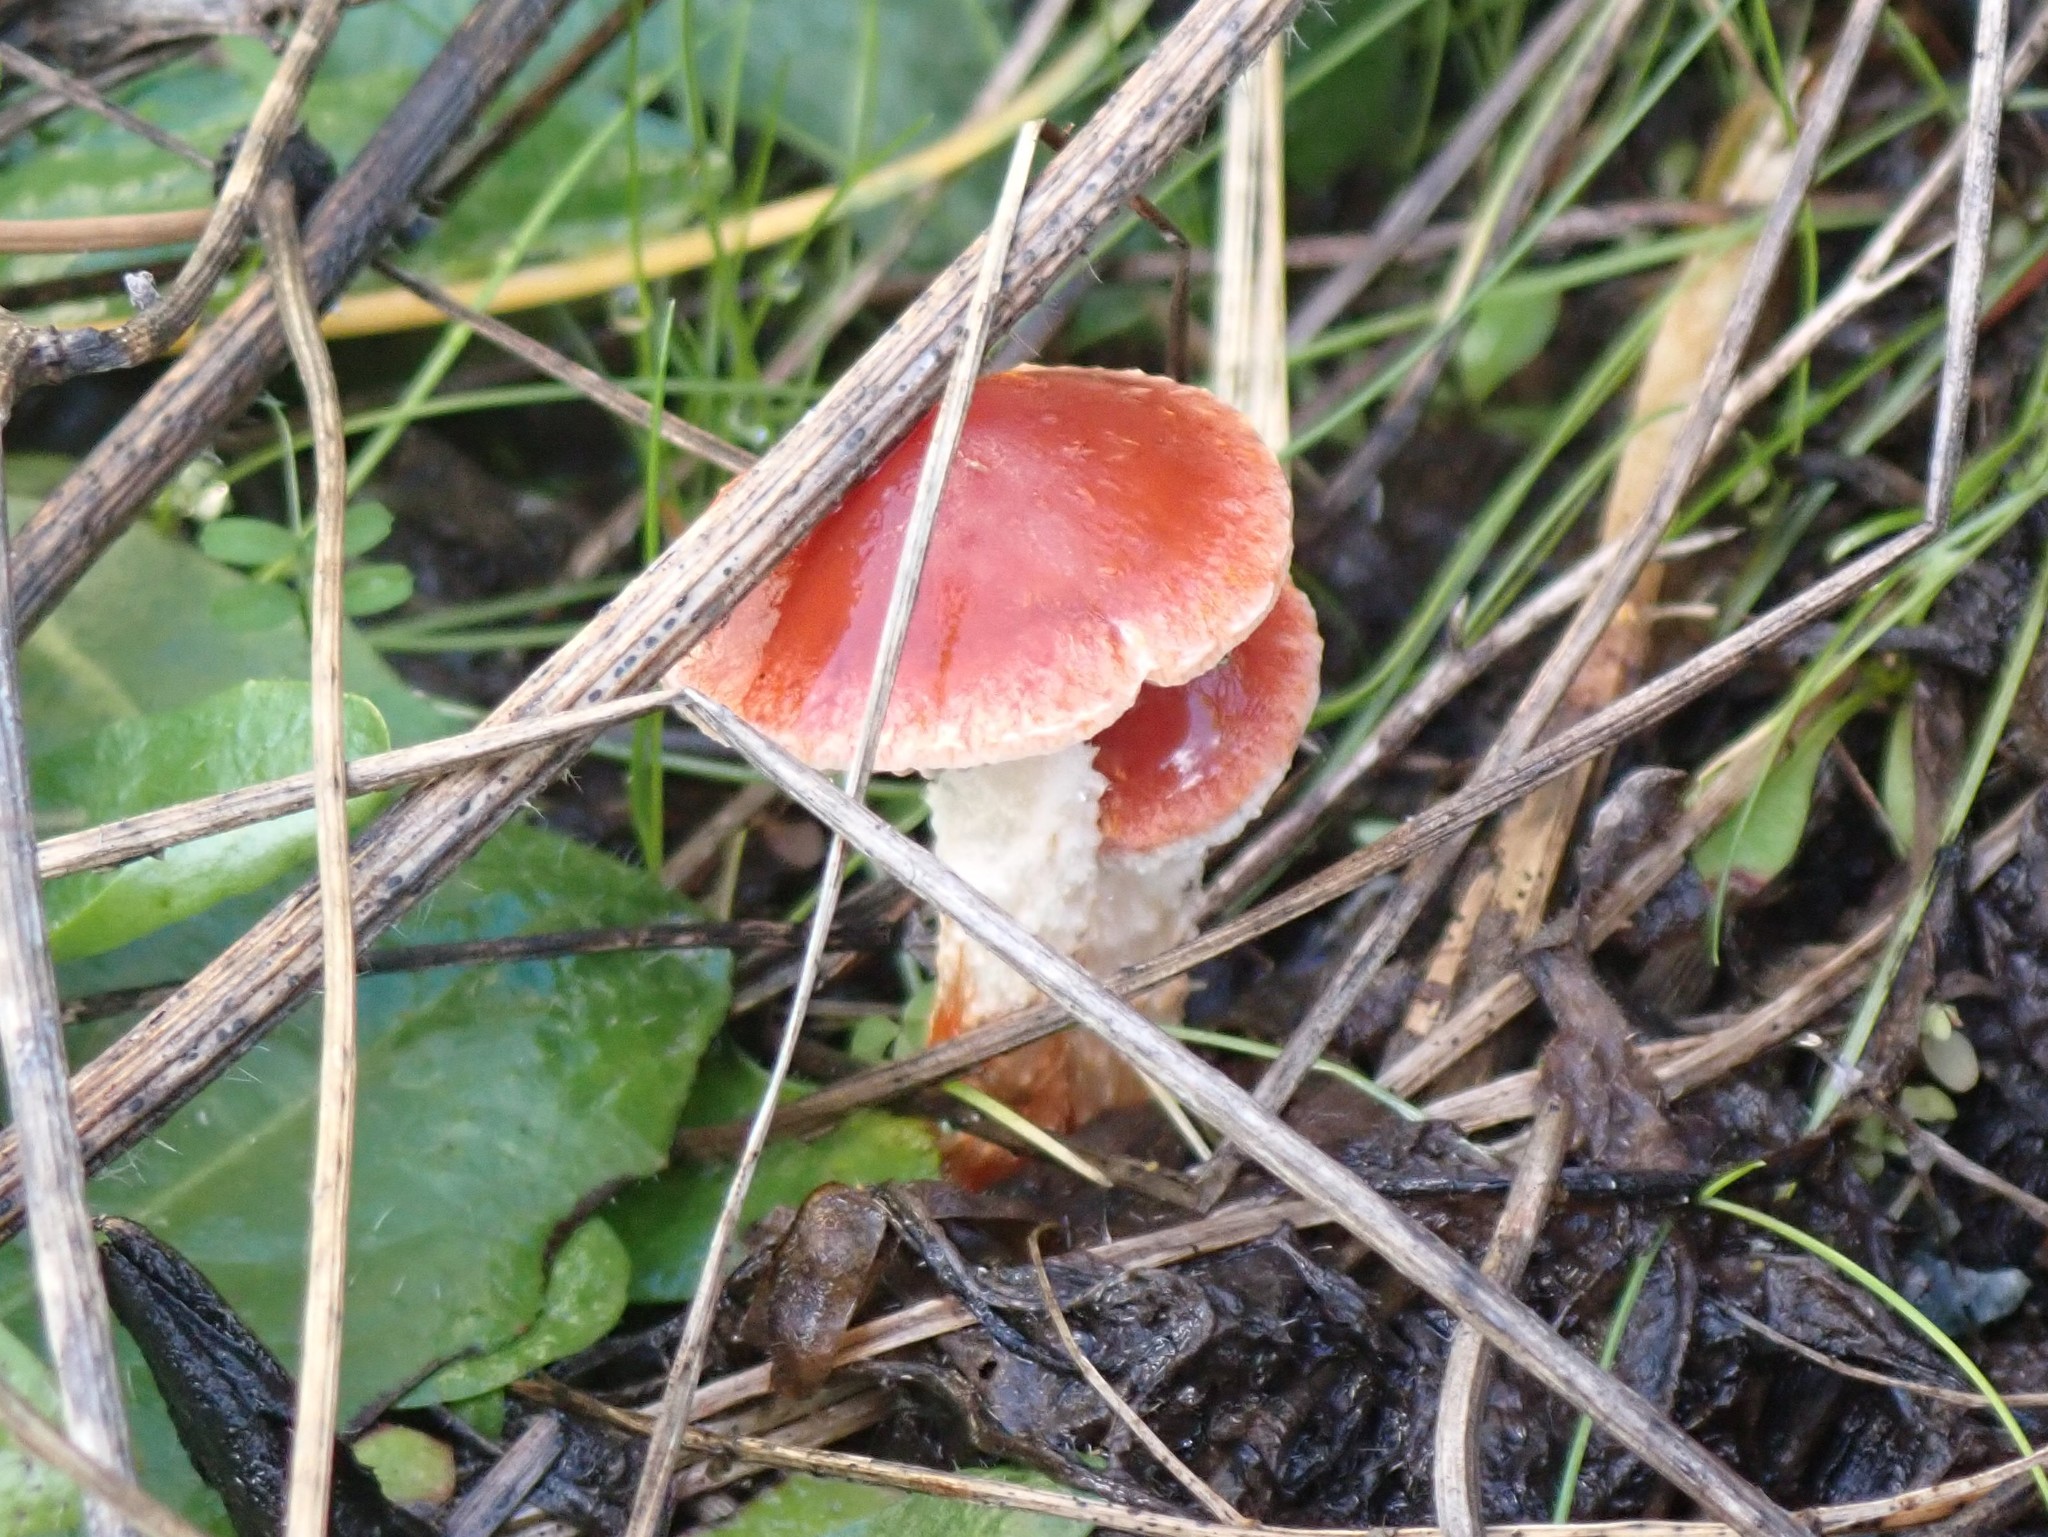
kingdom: Fungi
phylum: Basidiomycota
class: Agaricomycetes
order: Agaricales
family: Strophariaceae
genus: Leratiomyces
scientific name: Leratiomyces ceres
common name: Redlead roundhead
